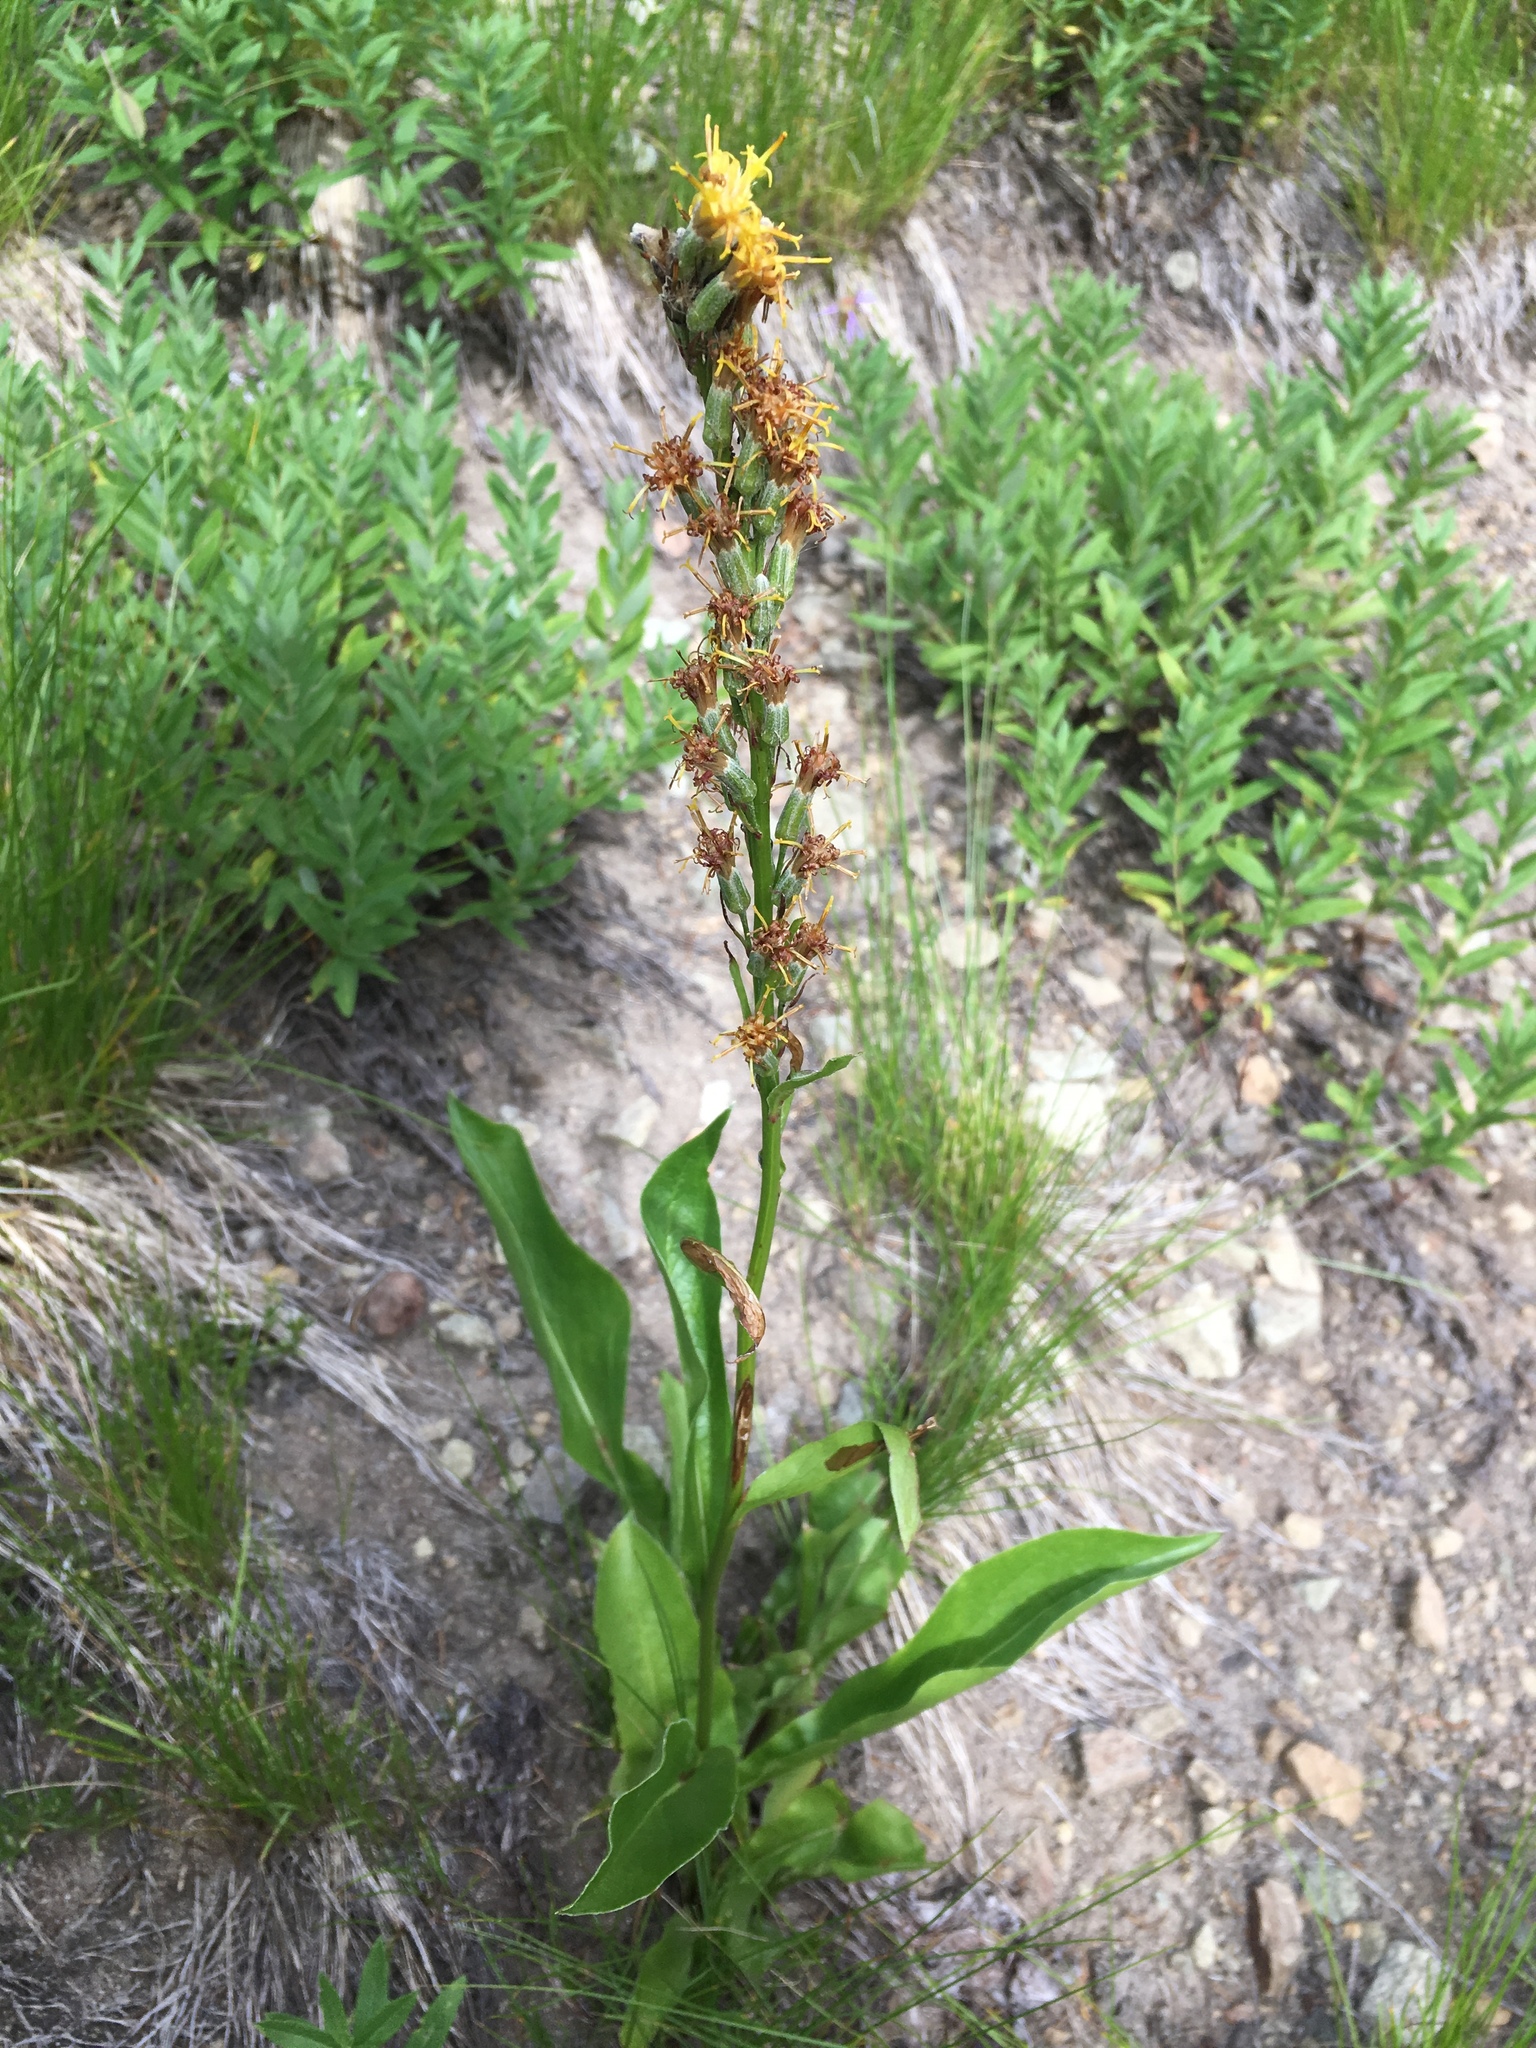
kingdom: Plantae
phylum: Tracheophyta
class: Magnoliopsida
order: Asterales
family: Asteraceae
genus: Rainiera
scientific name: Rainiera stricta
